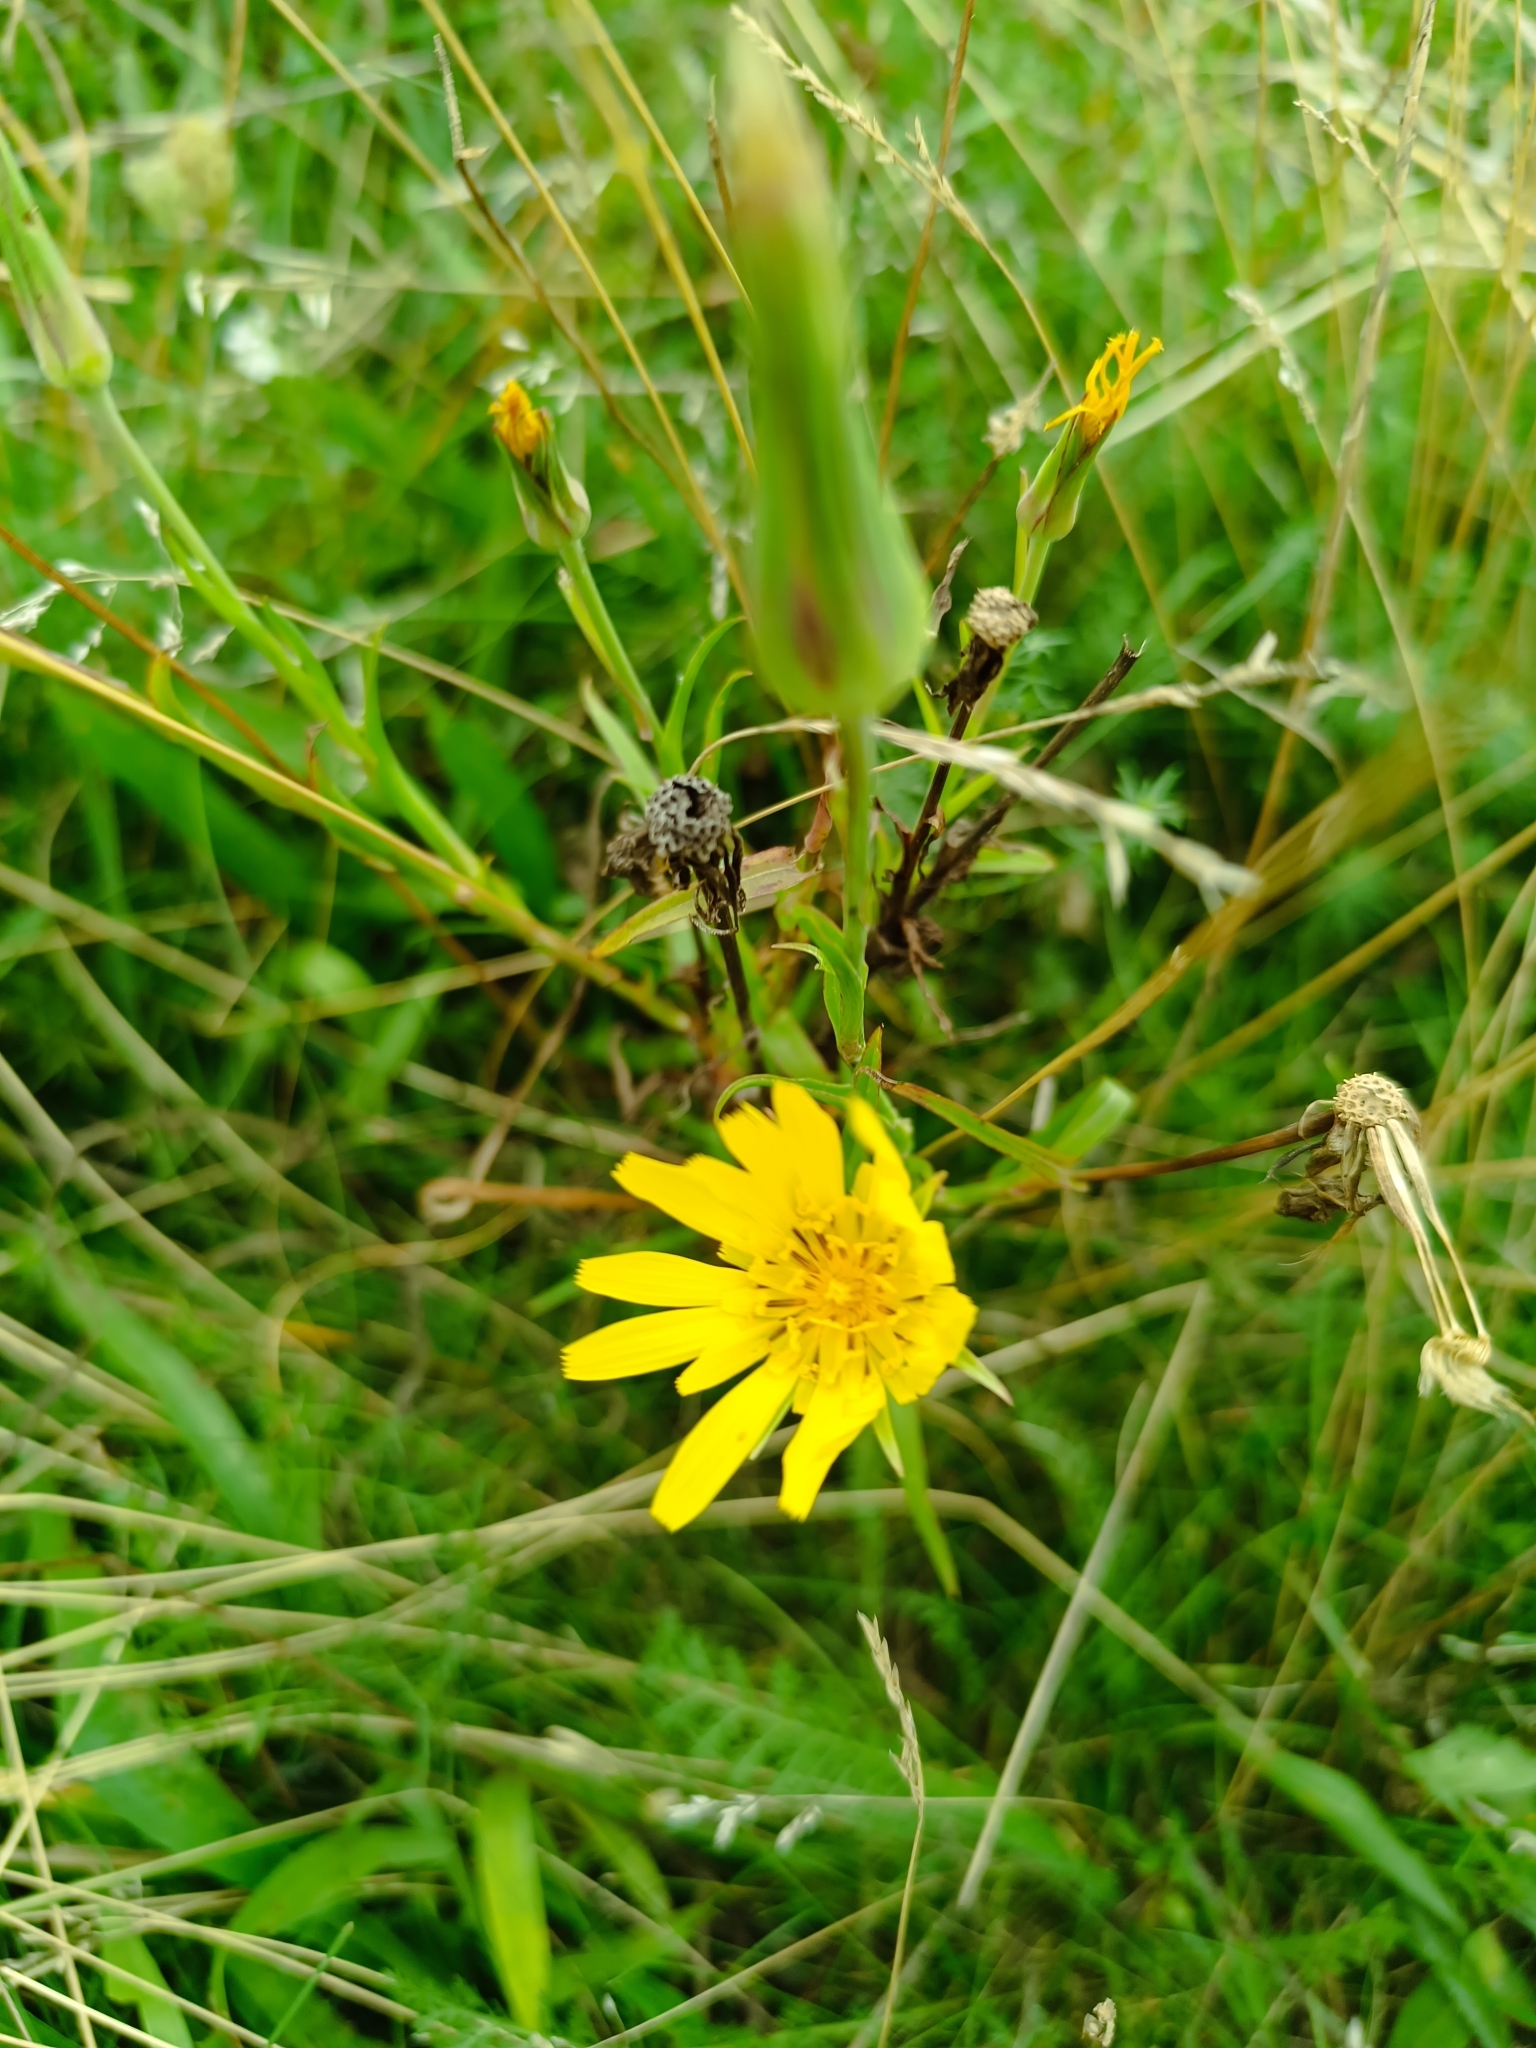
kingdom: Plantae
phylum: Tracheophyta
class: Magnoliopsida
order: Asterales
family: Asteraceae
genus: Tragopogon
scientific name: Tragopogon orientalis
